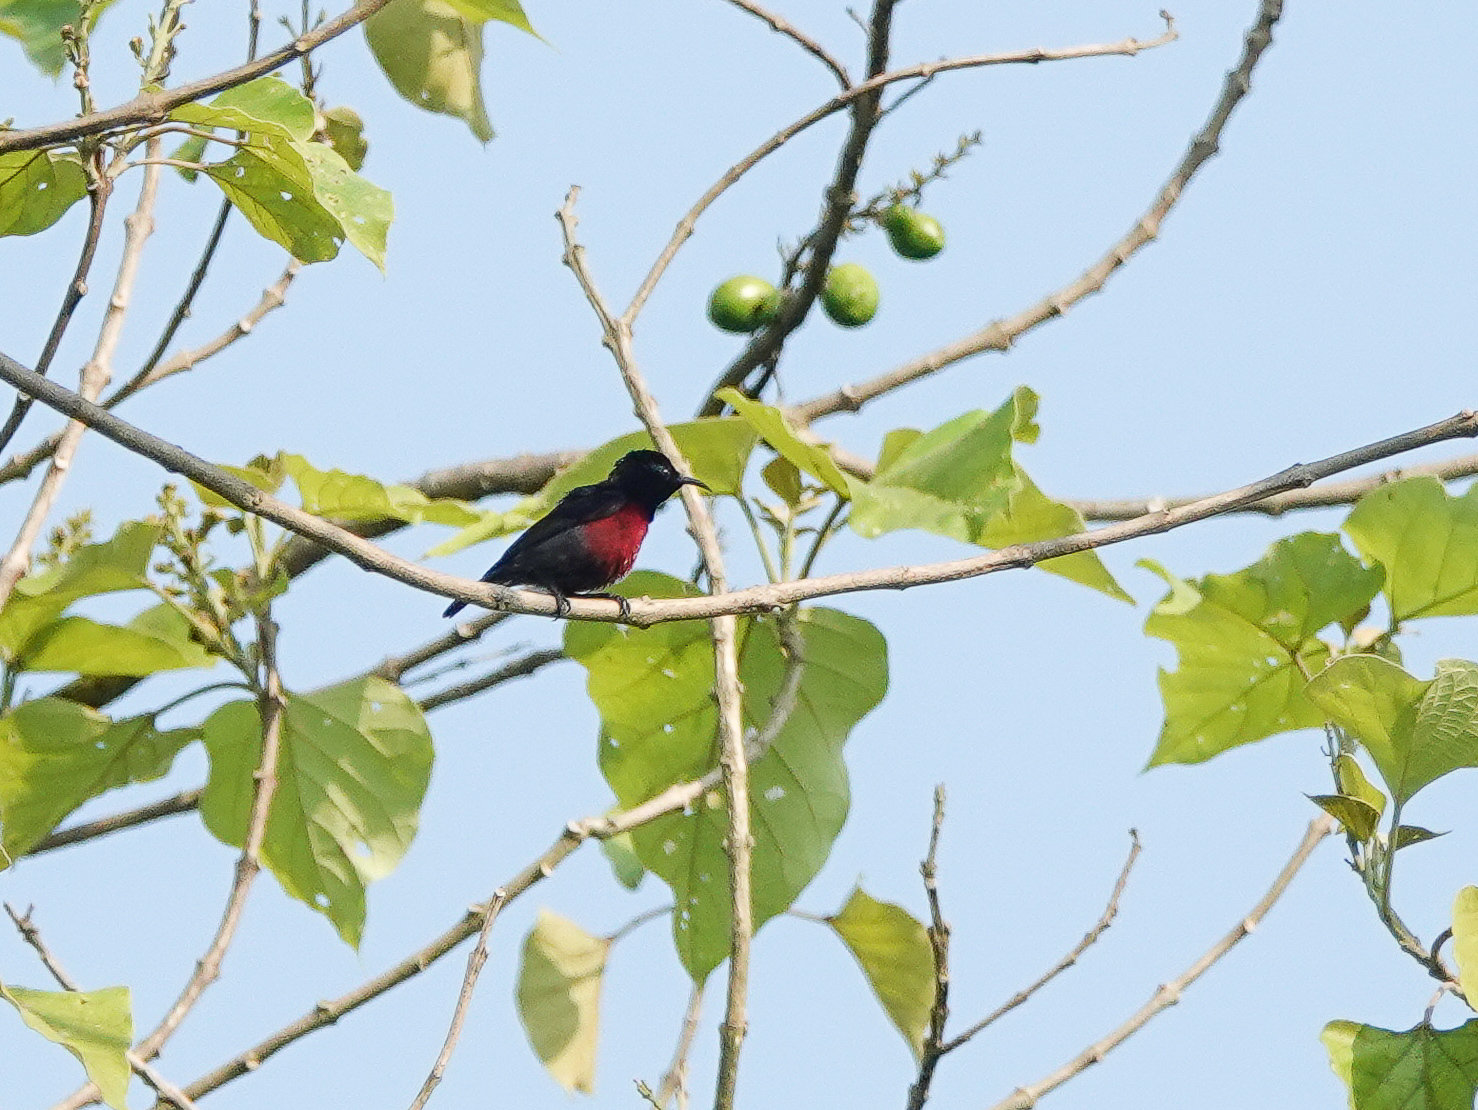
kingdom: Animalia
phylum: Chordata
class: Aves
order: Passeriformes
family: Nectariniidae
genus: Leptocoma
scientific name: Leptocoma brasiliana
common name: Van hasselt's sunbird
